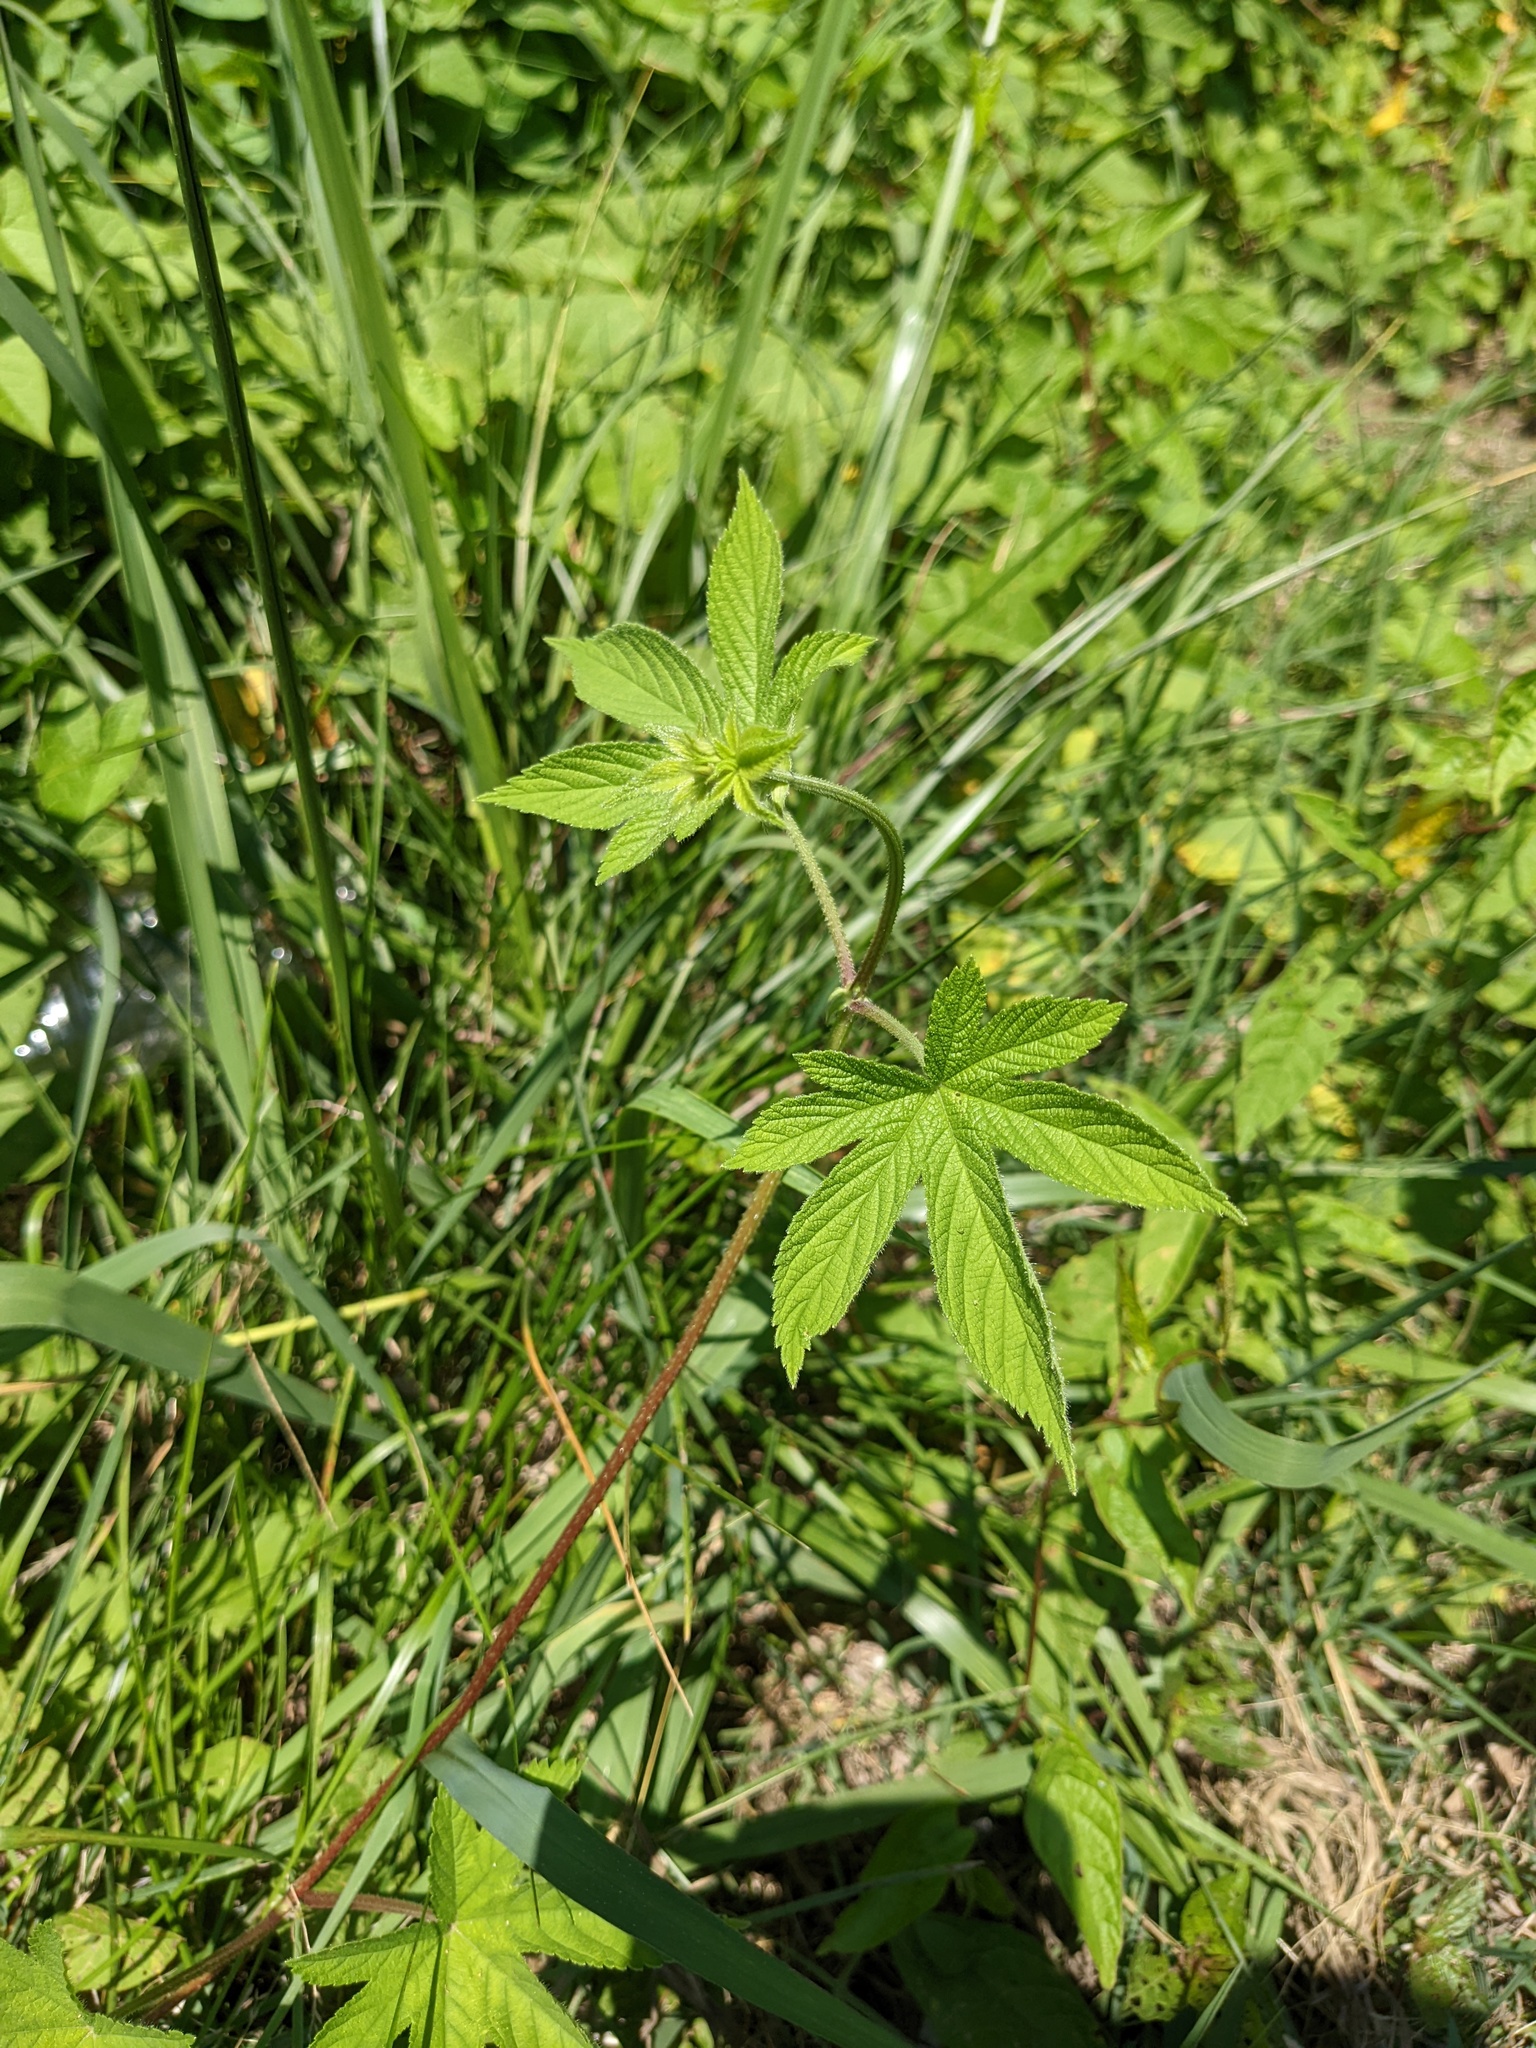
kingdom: Plantae
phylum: Tracheophyta
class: Magnoliopsida
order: Rosales
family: Cannabaceae
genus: Humulus
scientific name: Humulus scandens
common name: Japanese hop
